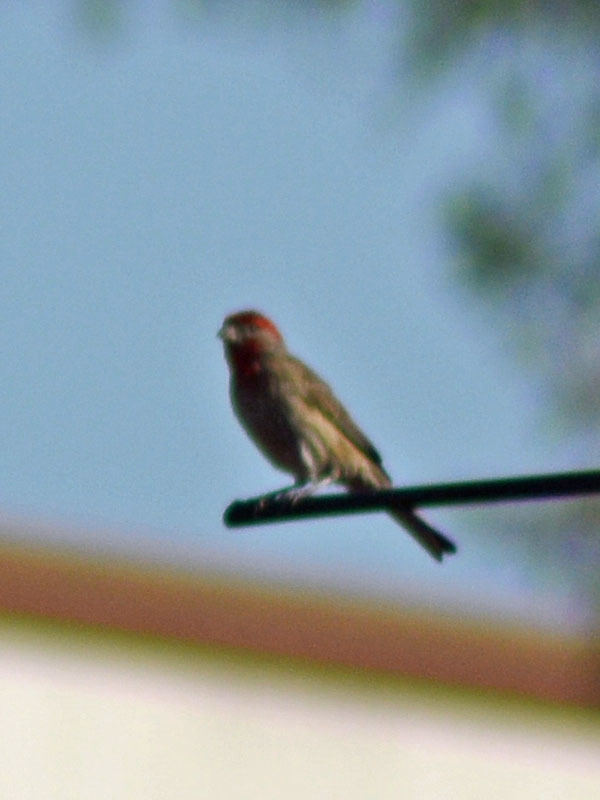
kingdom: Animalia
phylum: Chordata
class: Aves
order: Passeriformes
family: Fringillidae
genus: Haemorhous
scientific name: Haemorhous mexicanus
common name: House finch
